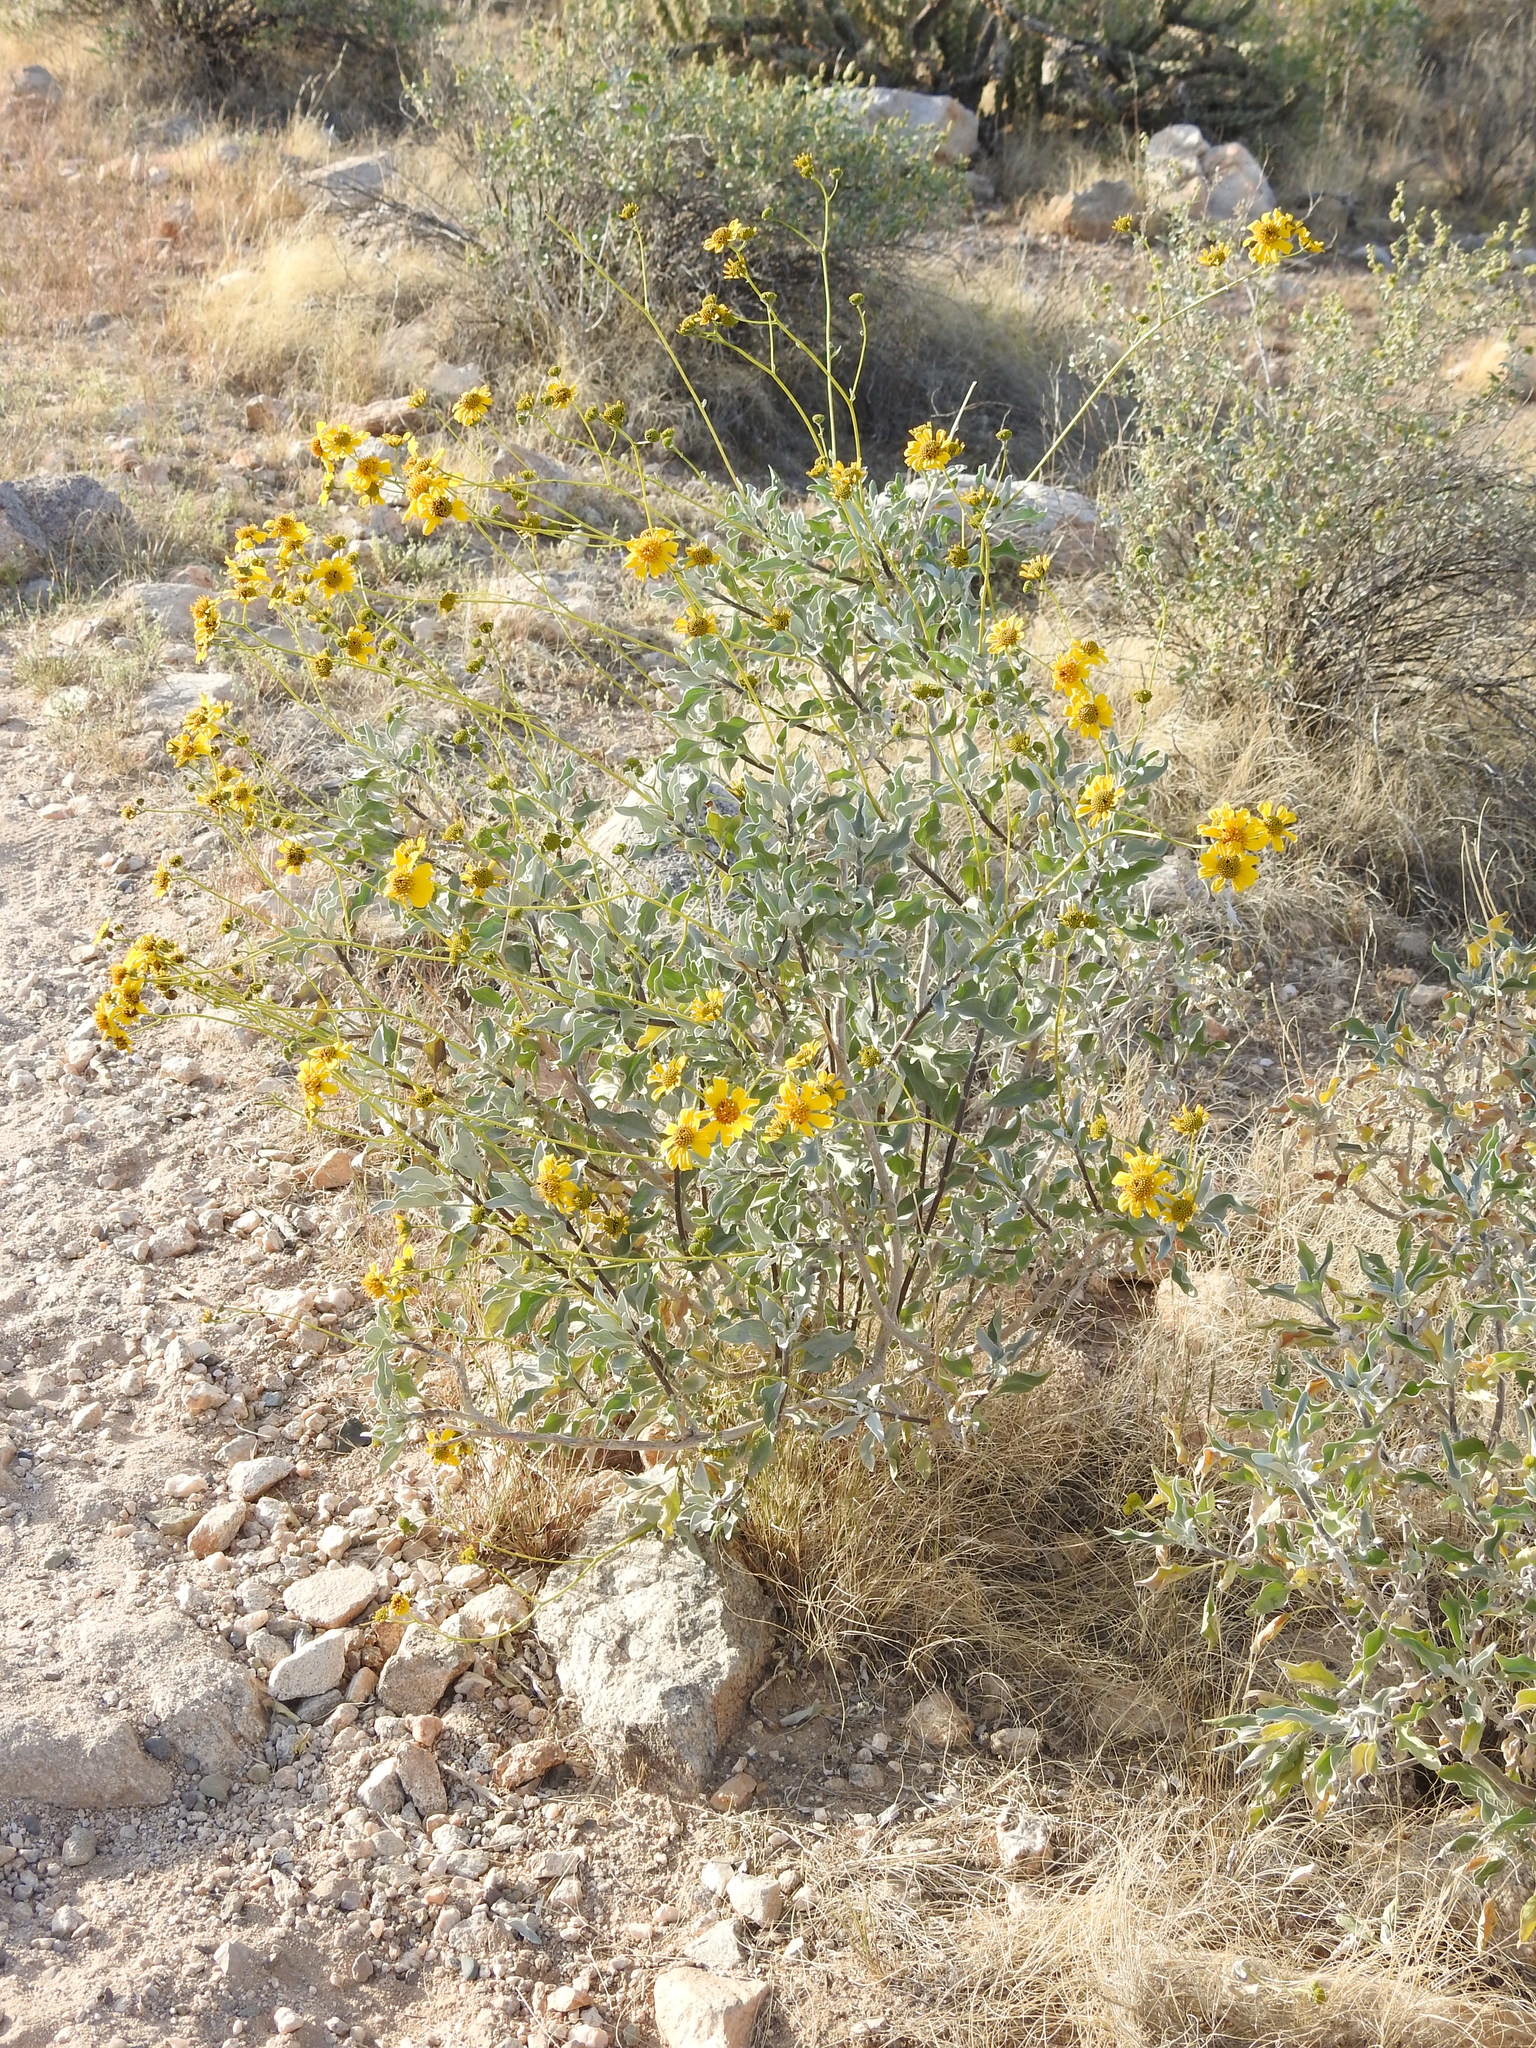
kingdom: Plantae
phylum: Tracheophyta
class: Magnoliopsida
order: Asterales
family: Asteraceae
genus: Encelia
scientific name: Encelia farinosa
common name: Brittlebush
